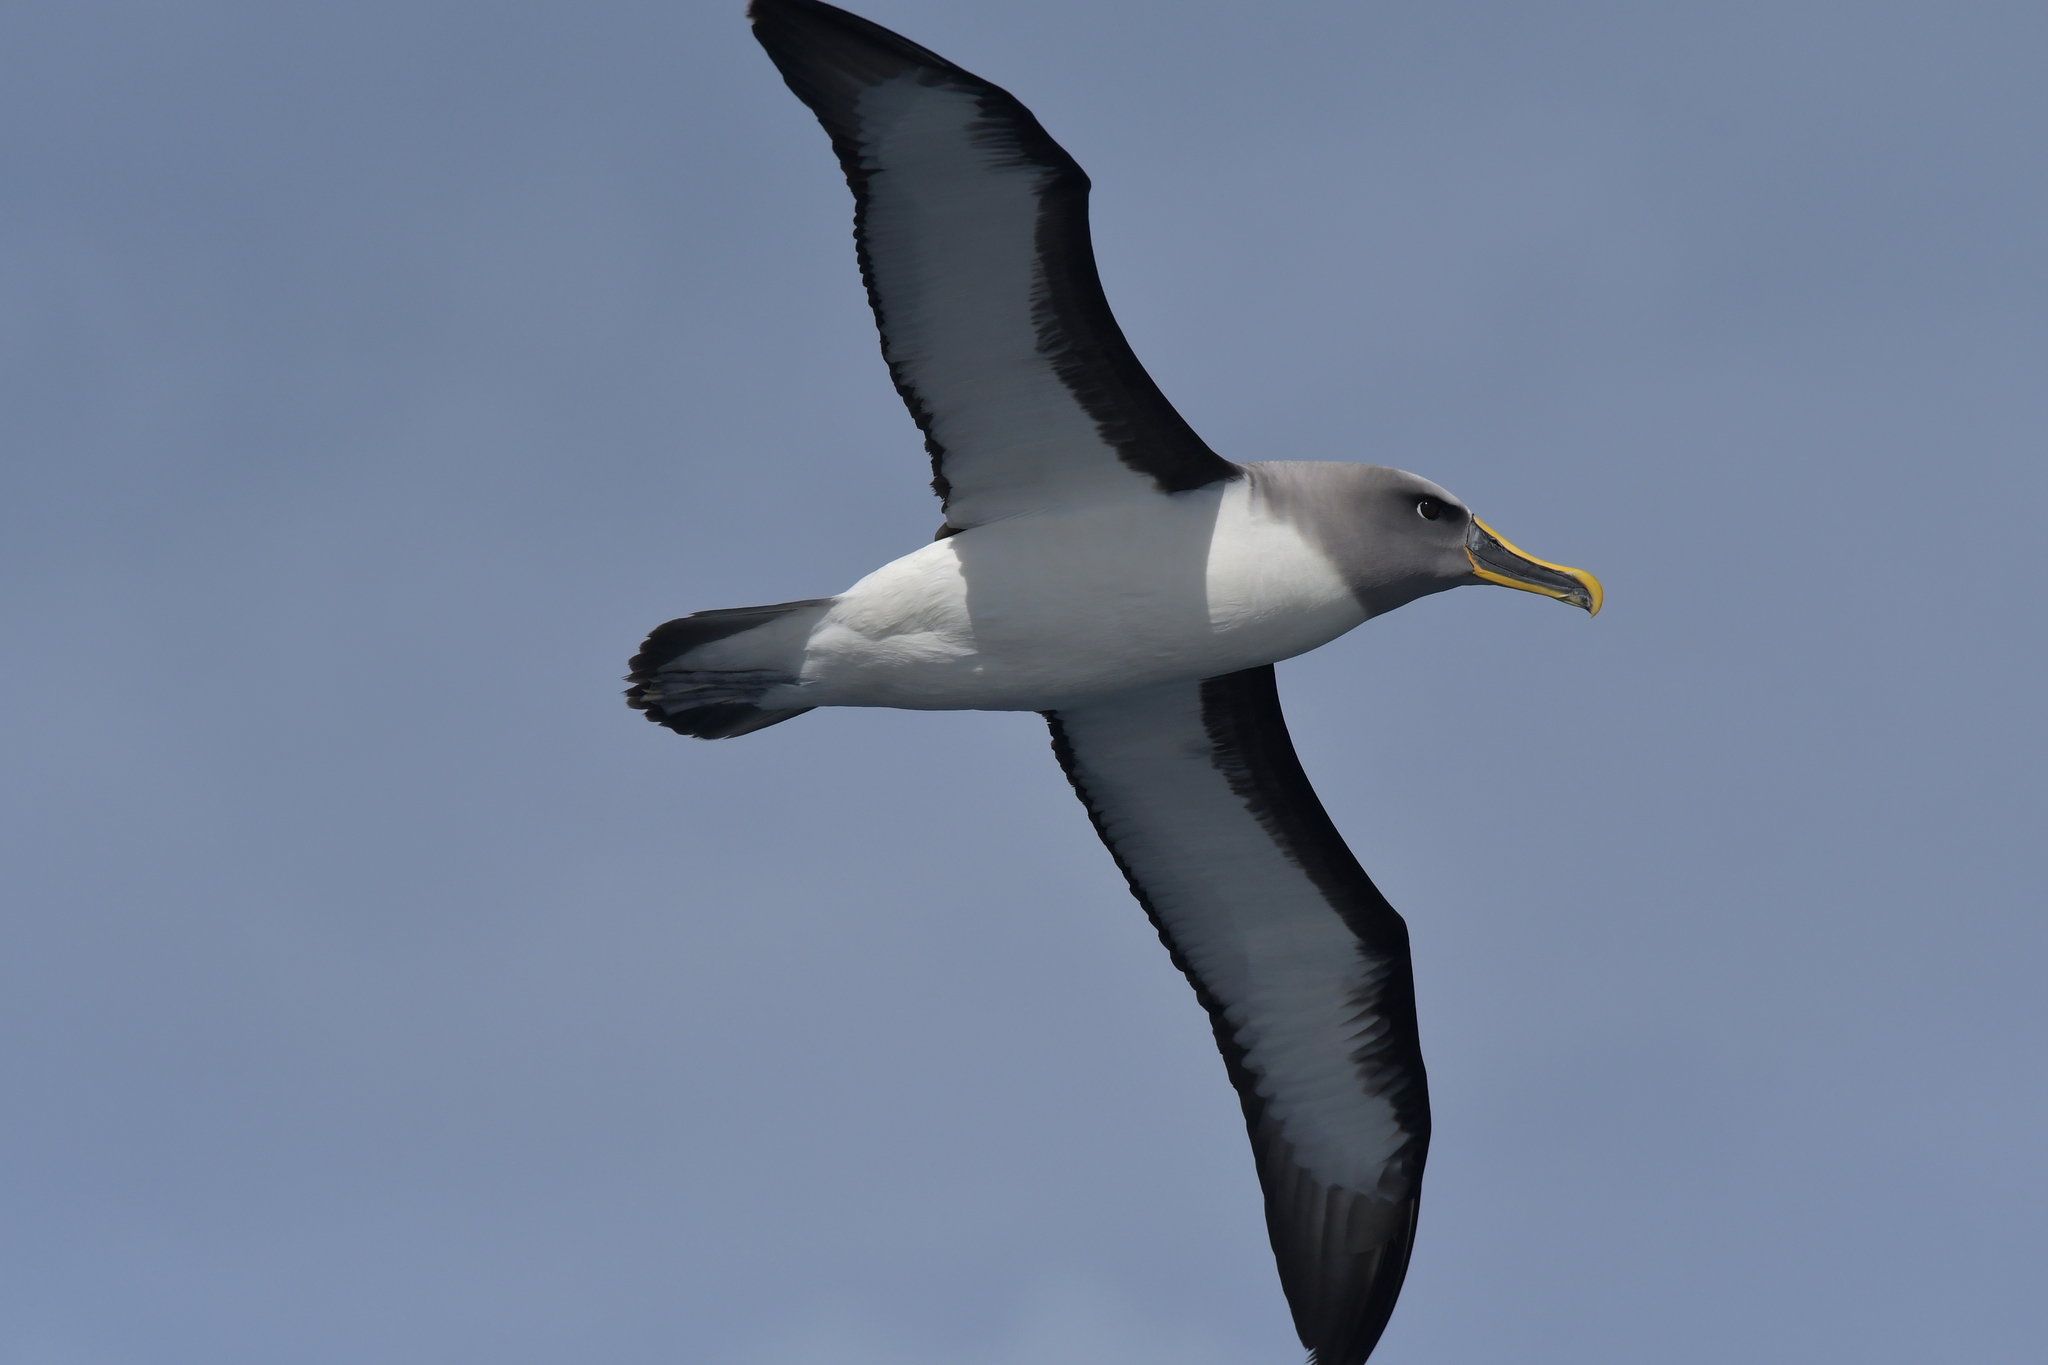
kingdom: Animalia
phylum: Chordata
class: Aves
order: Procellariiformes
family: Diomedeidae
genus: Thalassarche
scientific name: Thalassarche bulleri
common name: Buller's albatross
